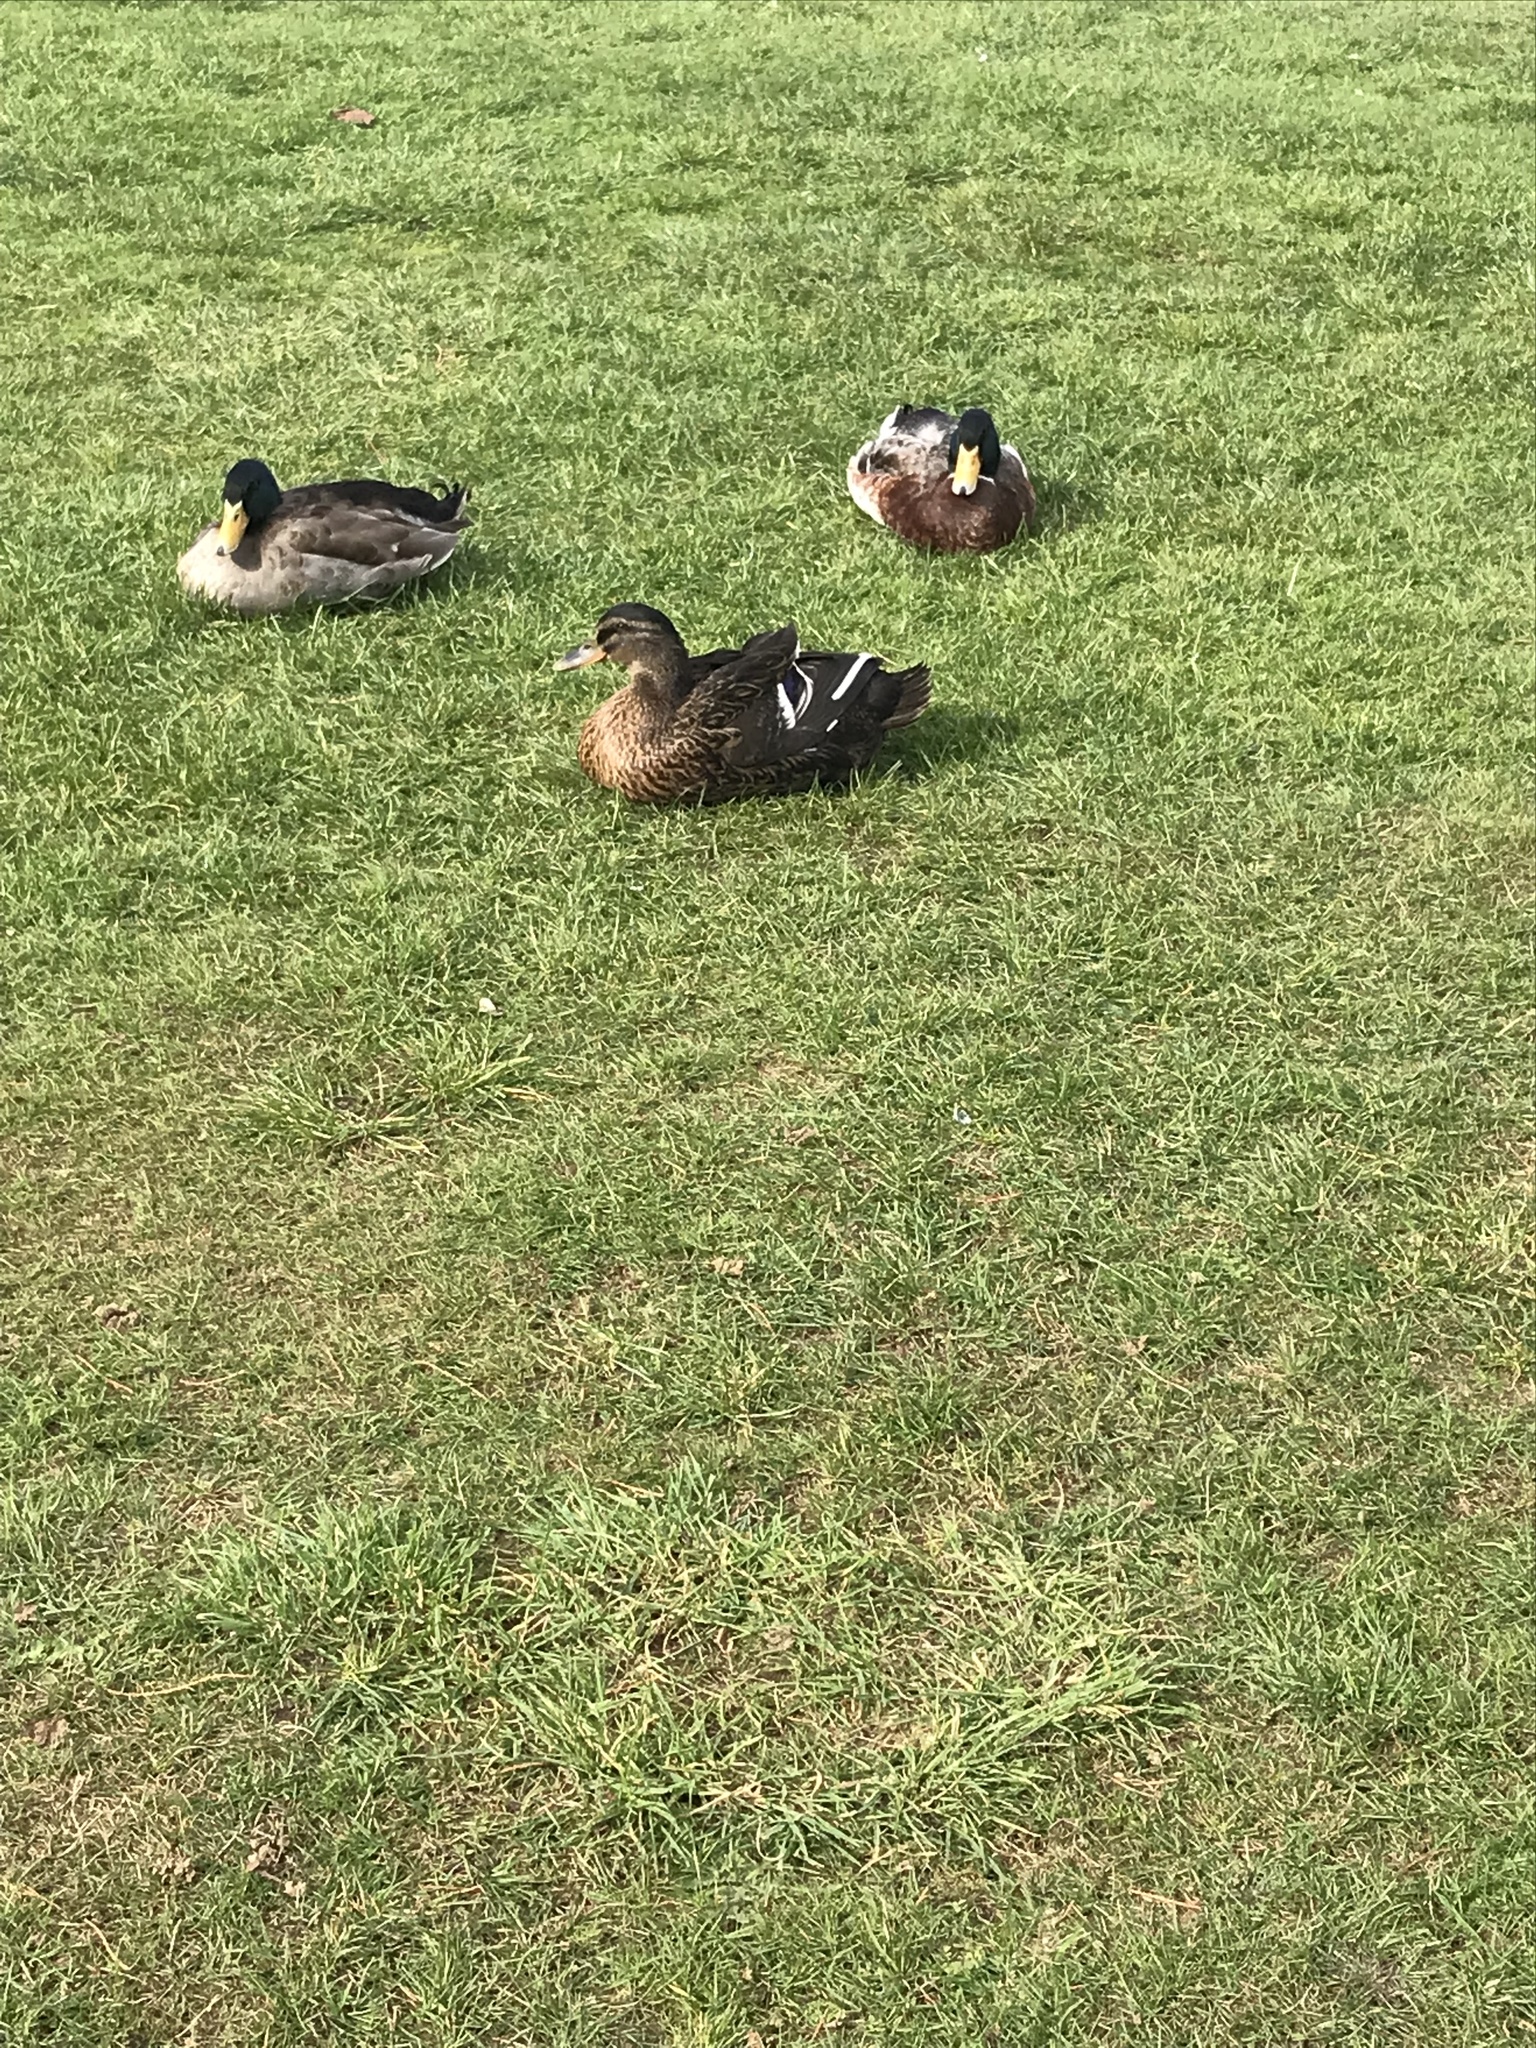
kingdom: Animalia
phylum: Chordata
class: Aves
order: Anseriformes
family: Anatidae
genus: Anas
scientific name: Anas platyrhynchos
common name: Mallard
